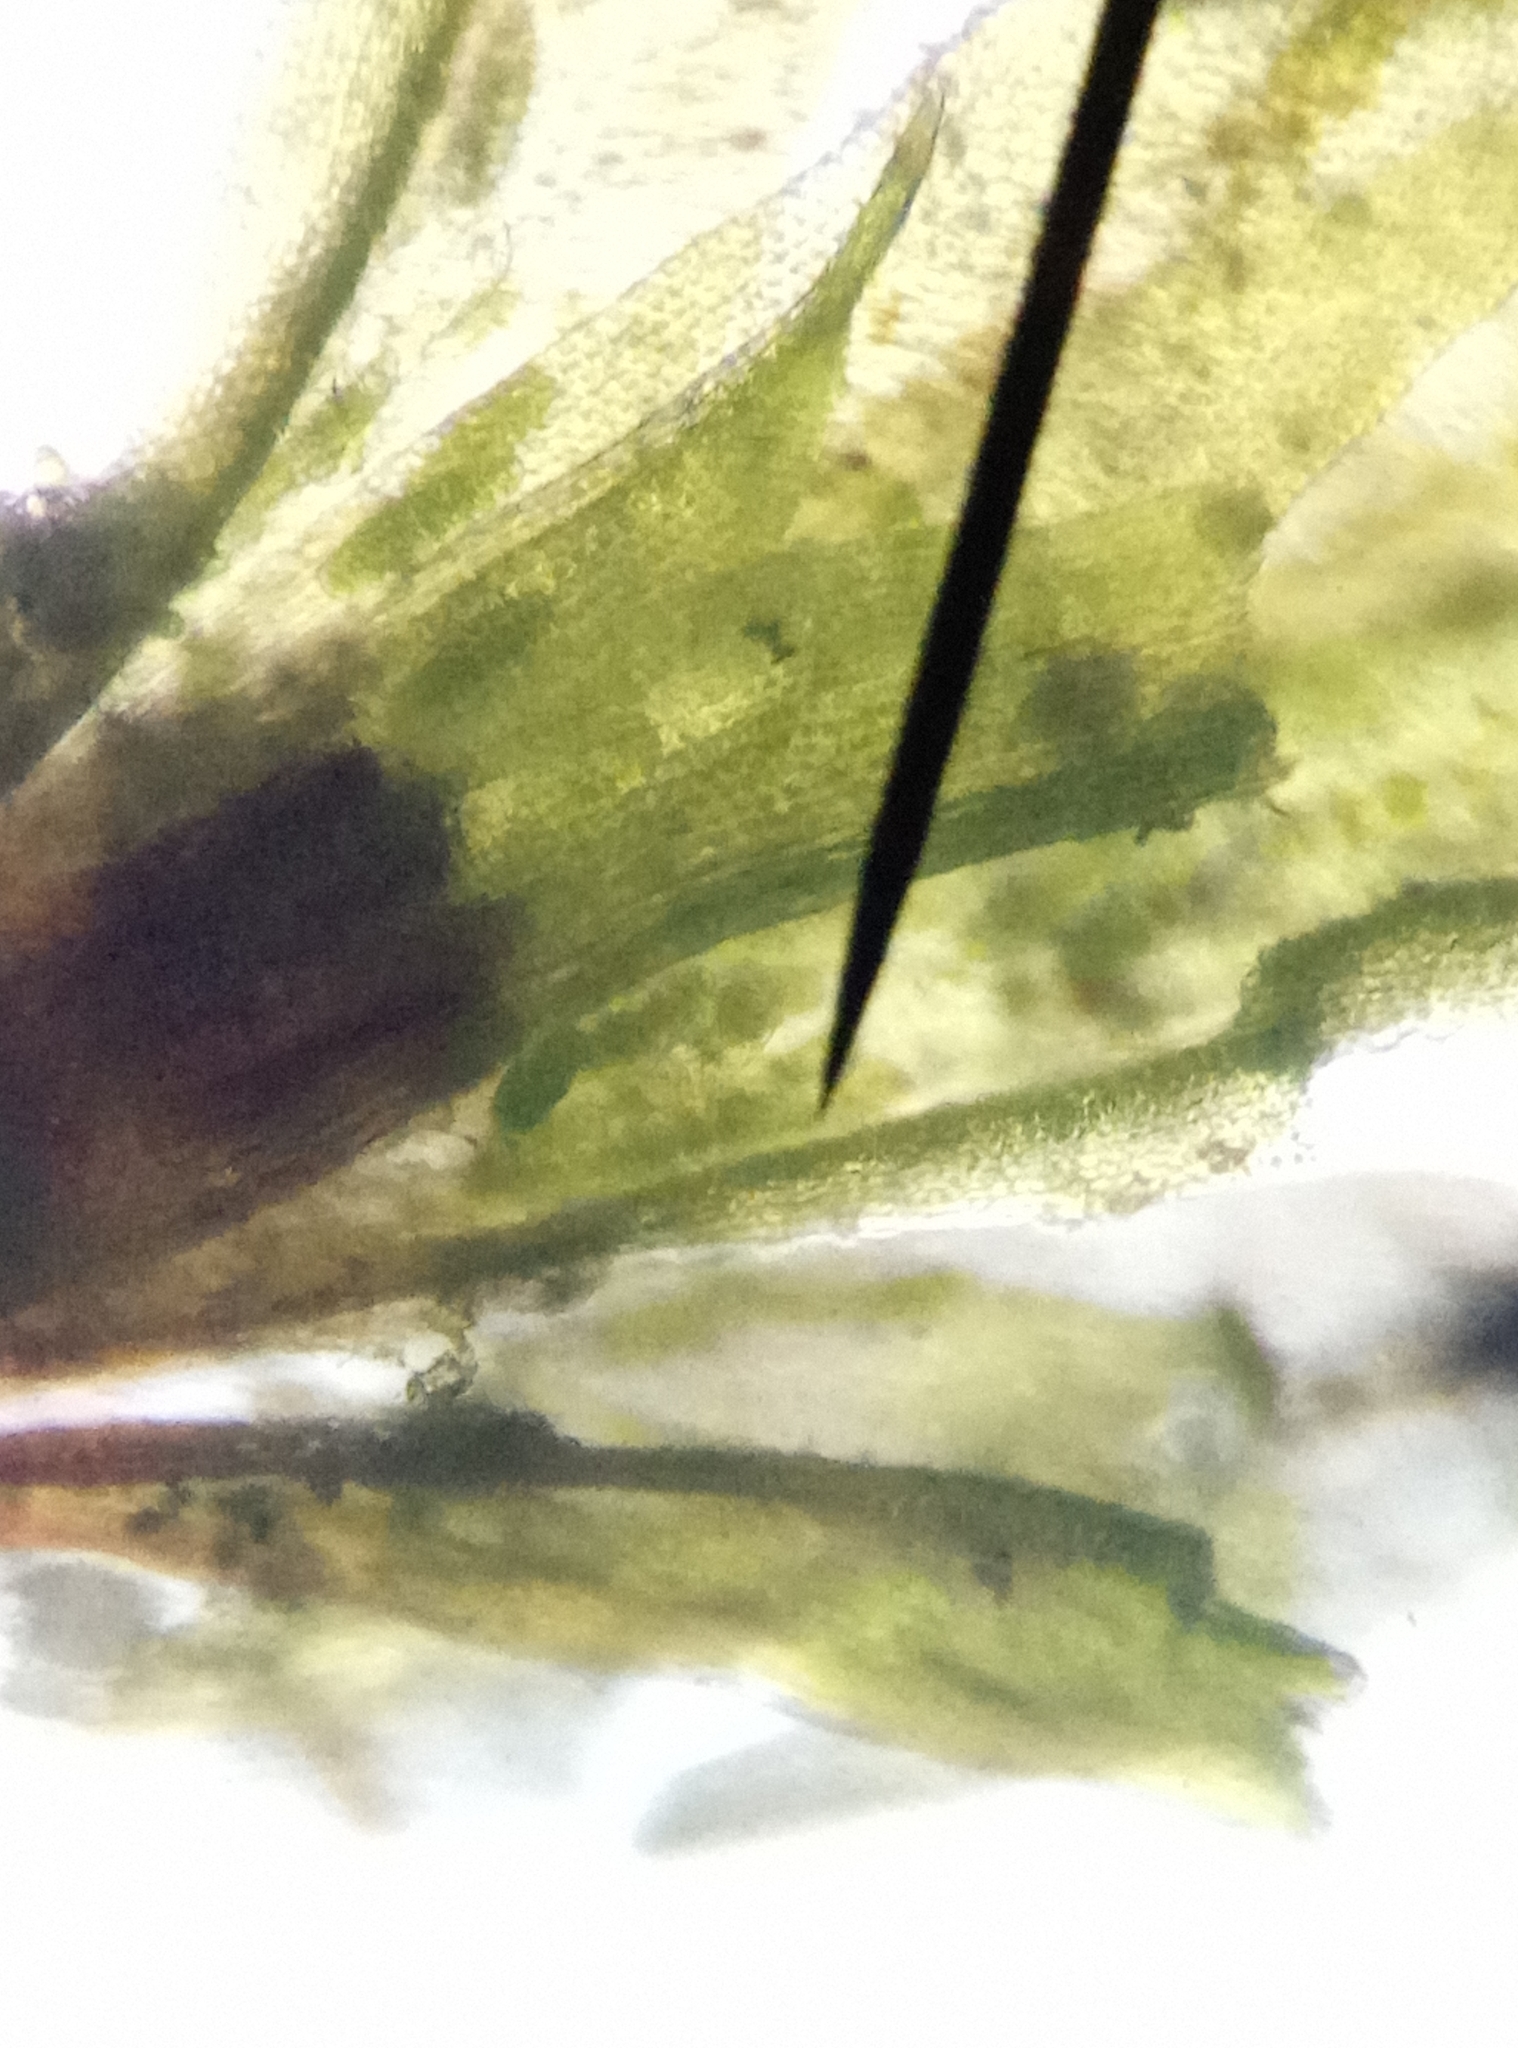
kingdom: Plantae
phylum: Bryophyta
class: Bryopsida
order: Orthotrichales
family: Orthotrichaceae
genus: Zygodon
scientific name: Zygodon conoideus
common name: Lesser yoke-moss
